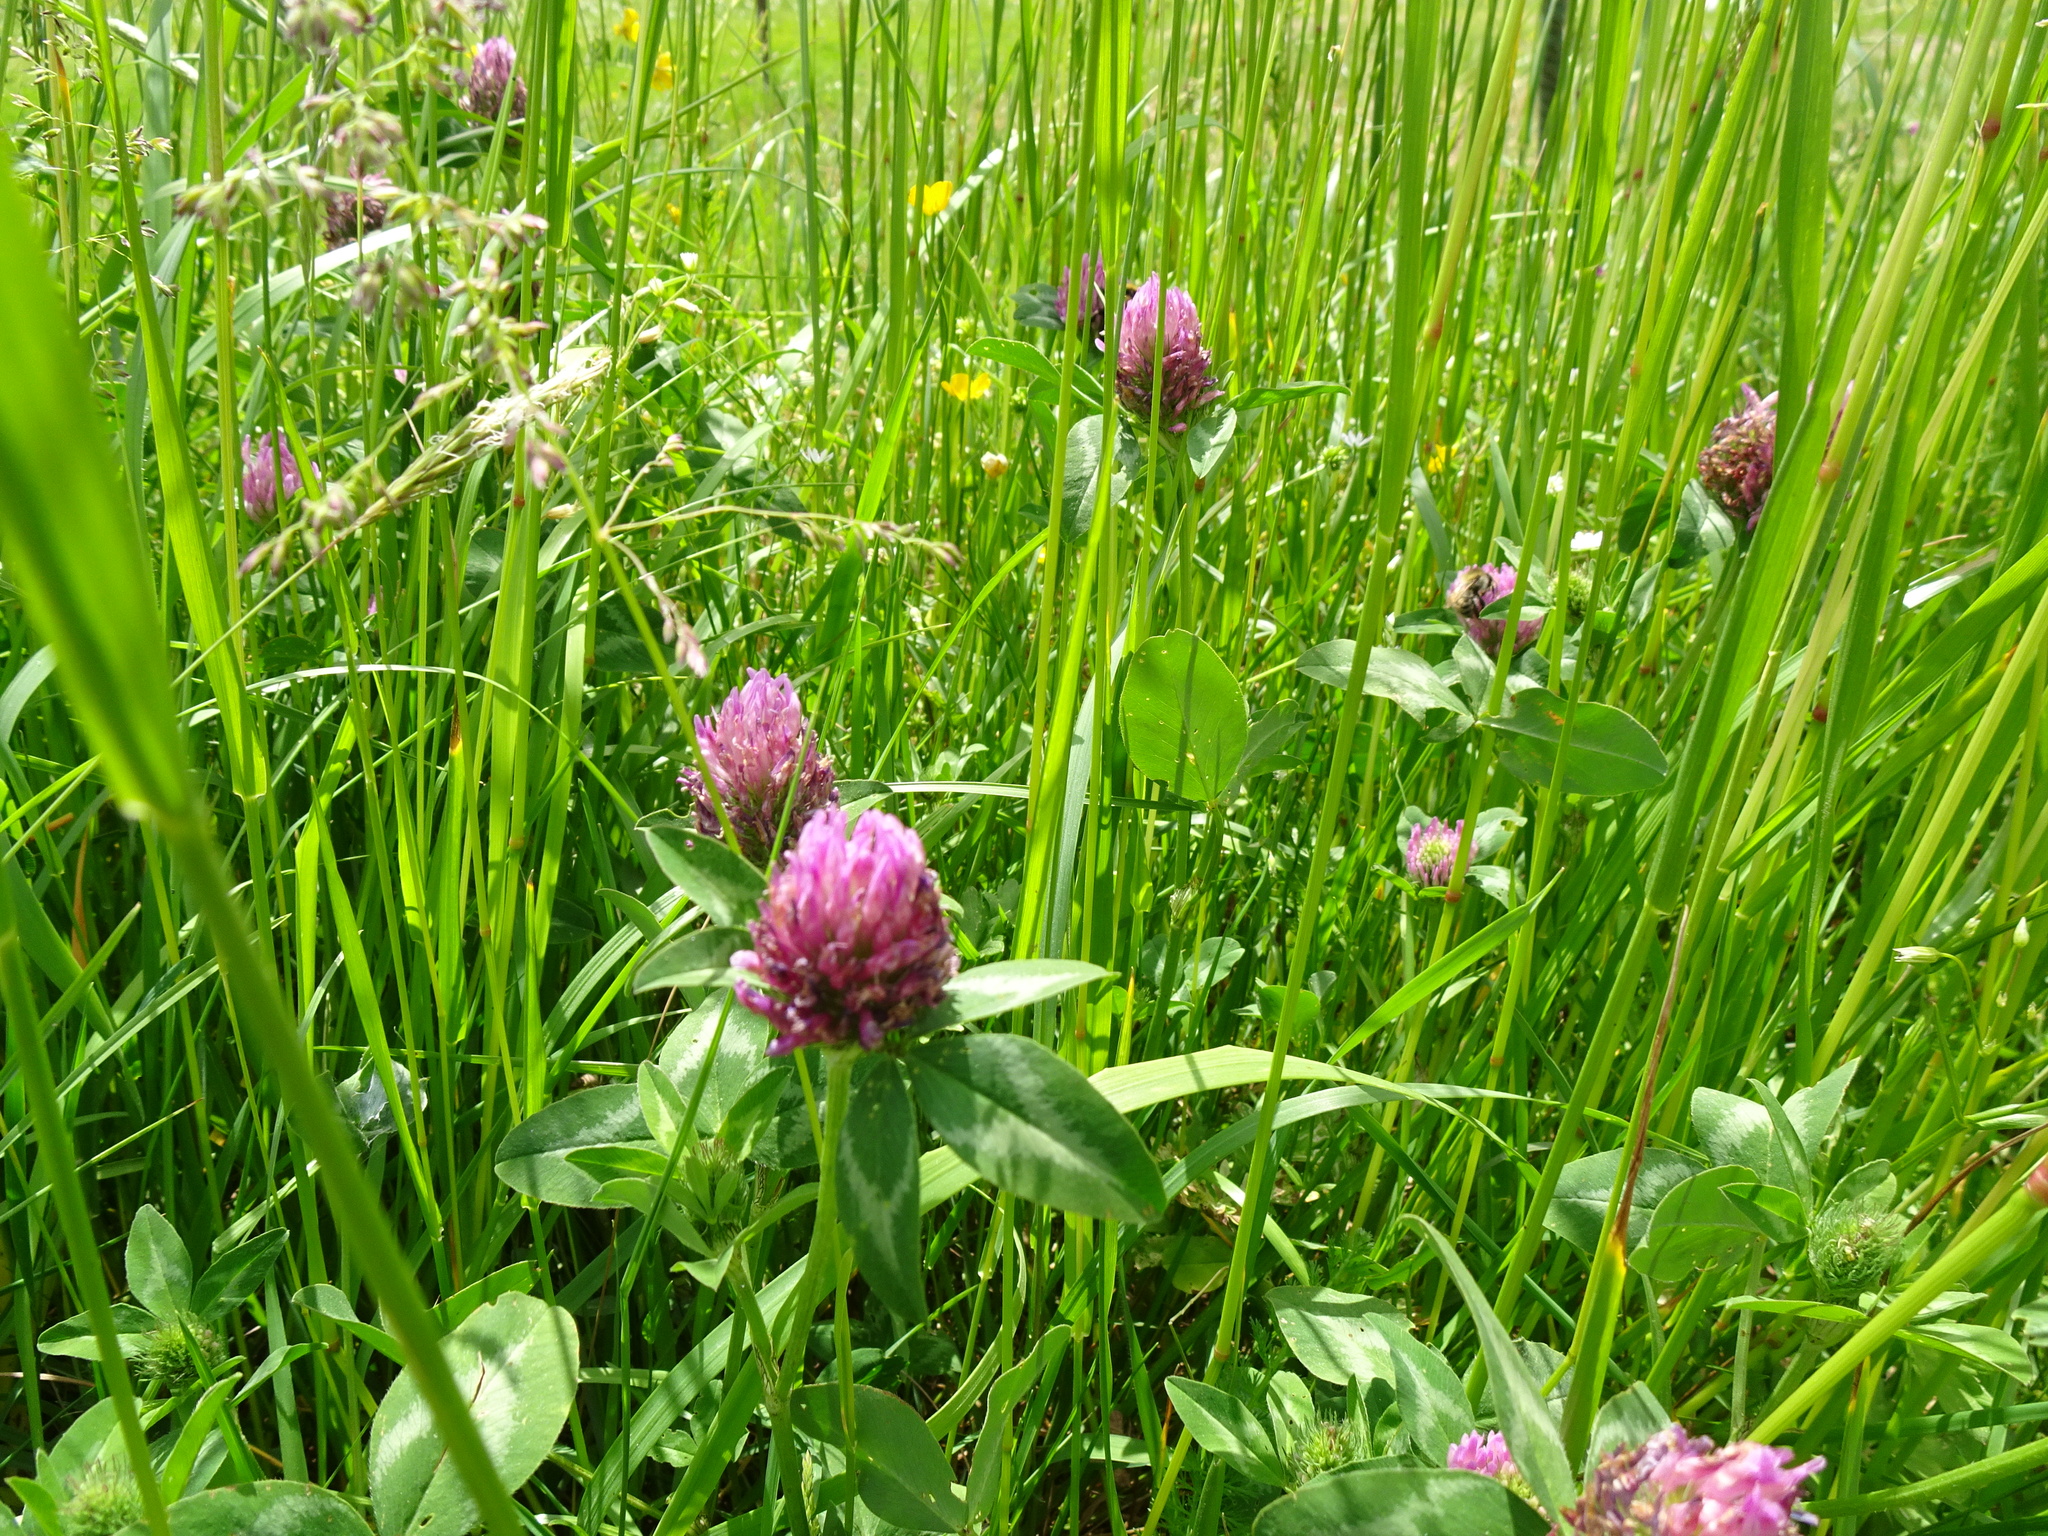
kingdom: Plantae
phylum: Tracheophyta
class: Magnoliopsida
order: Fabales
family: Fabaceae
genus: Trifolium
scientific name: Trifolium pratense
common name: Red clover
